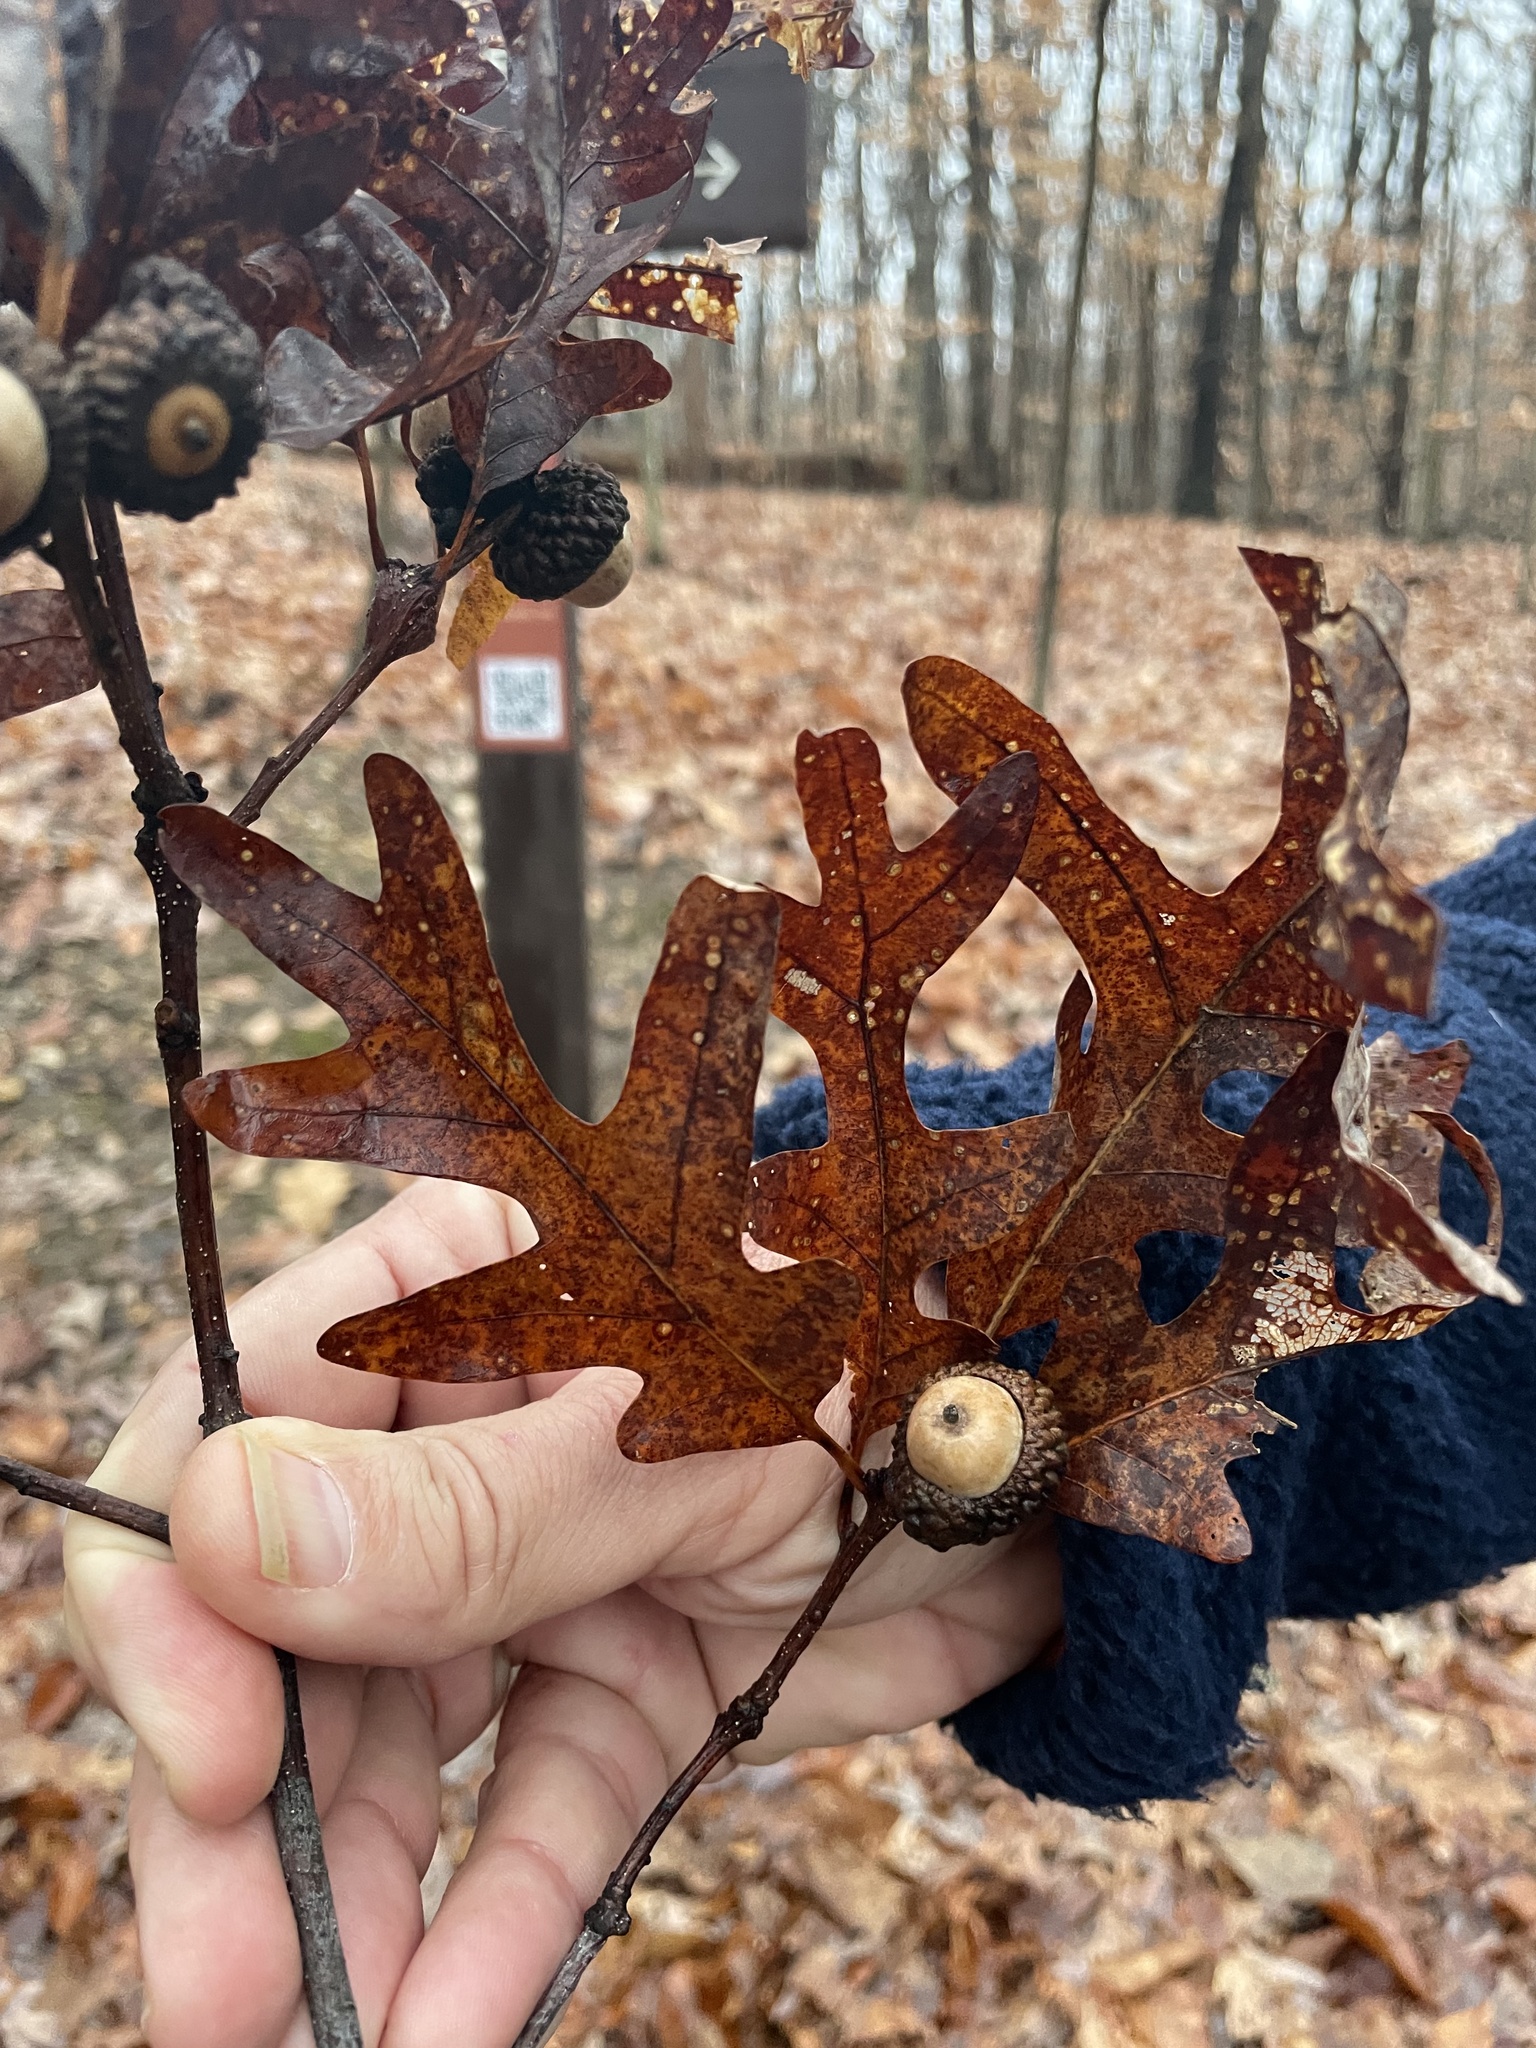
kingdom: Plantae
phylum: Tracheophyta
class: Magnoliopsida
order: Fagales
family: Fagaceae
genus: Quercus
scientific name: Quercus alba
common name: White oak
